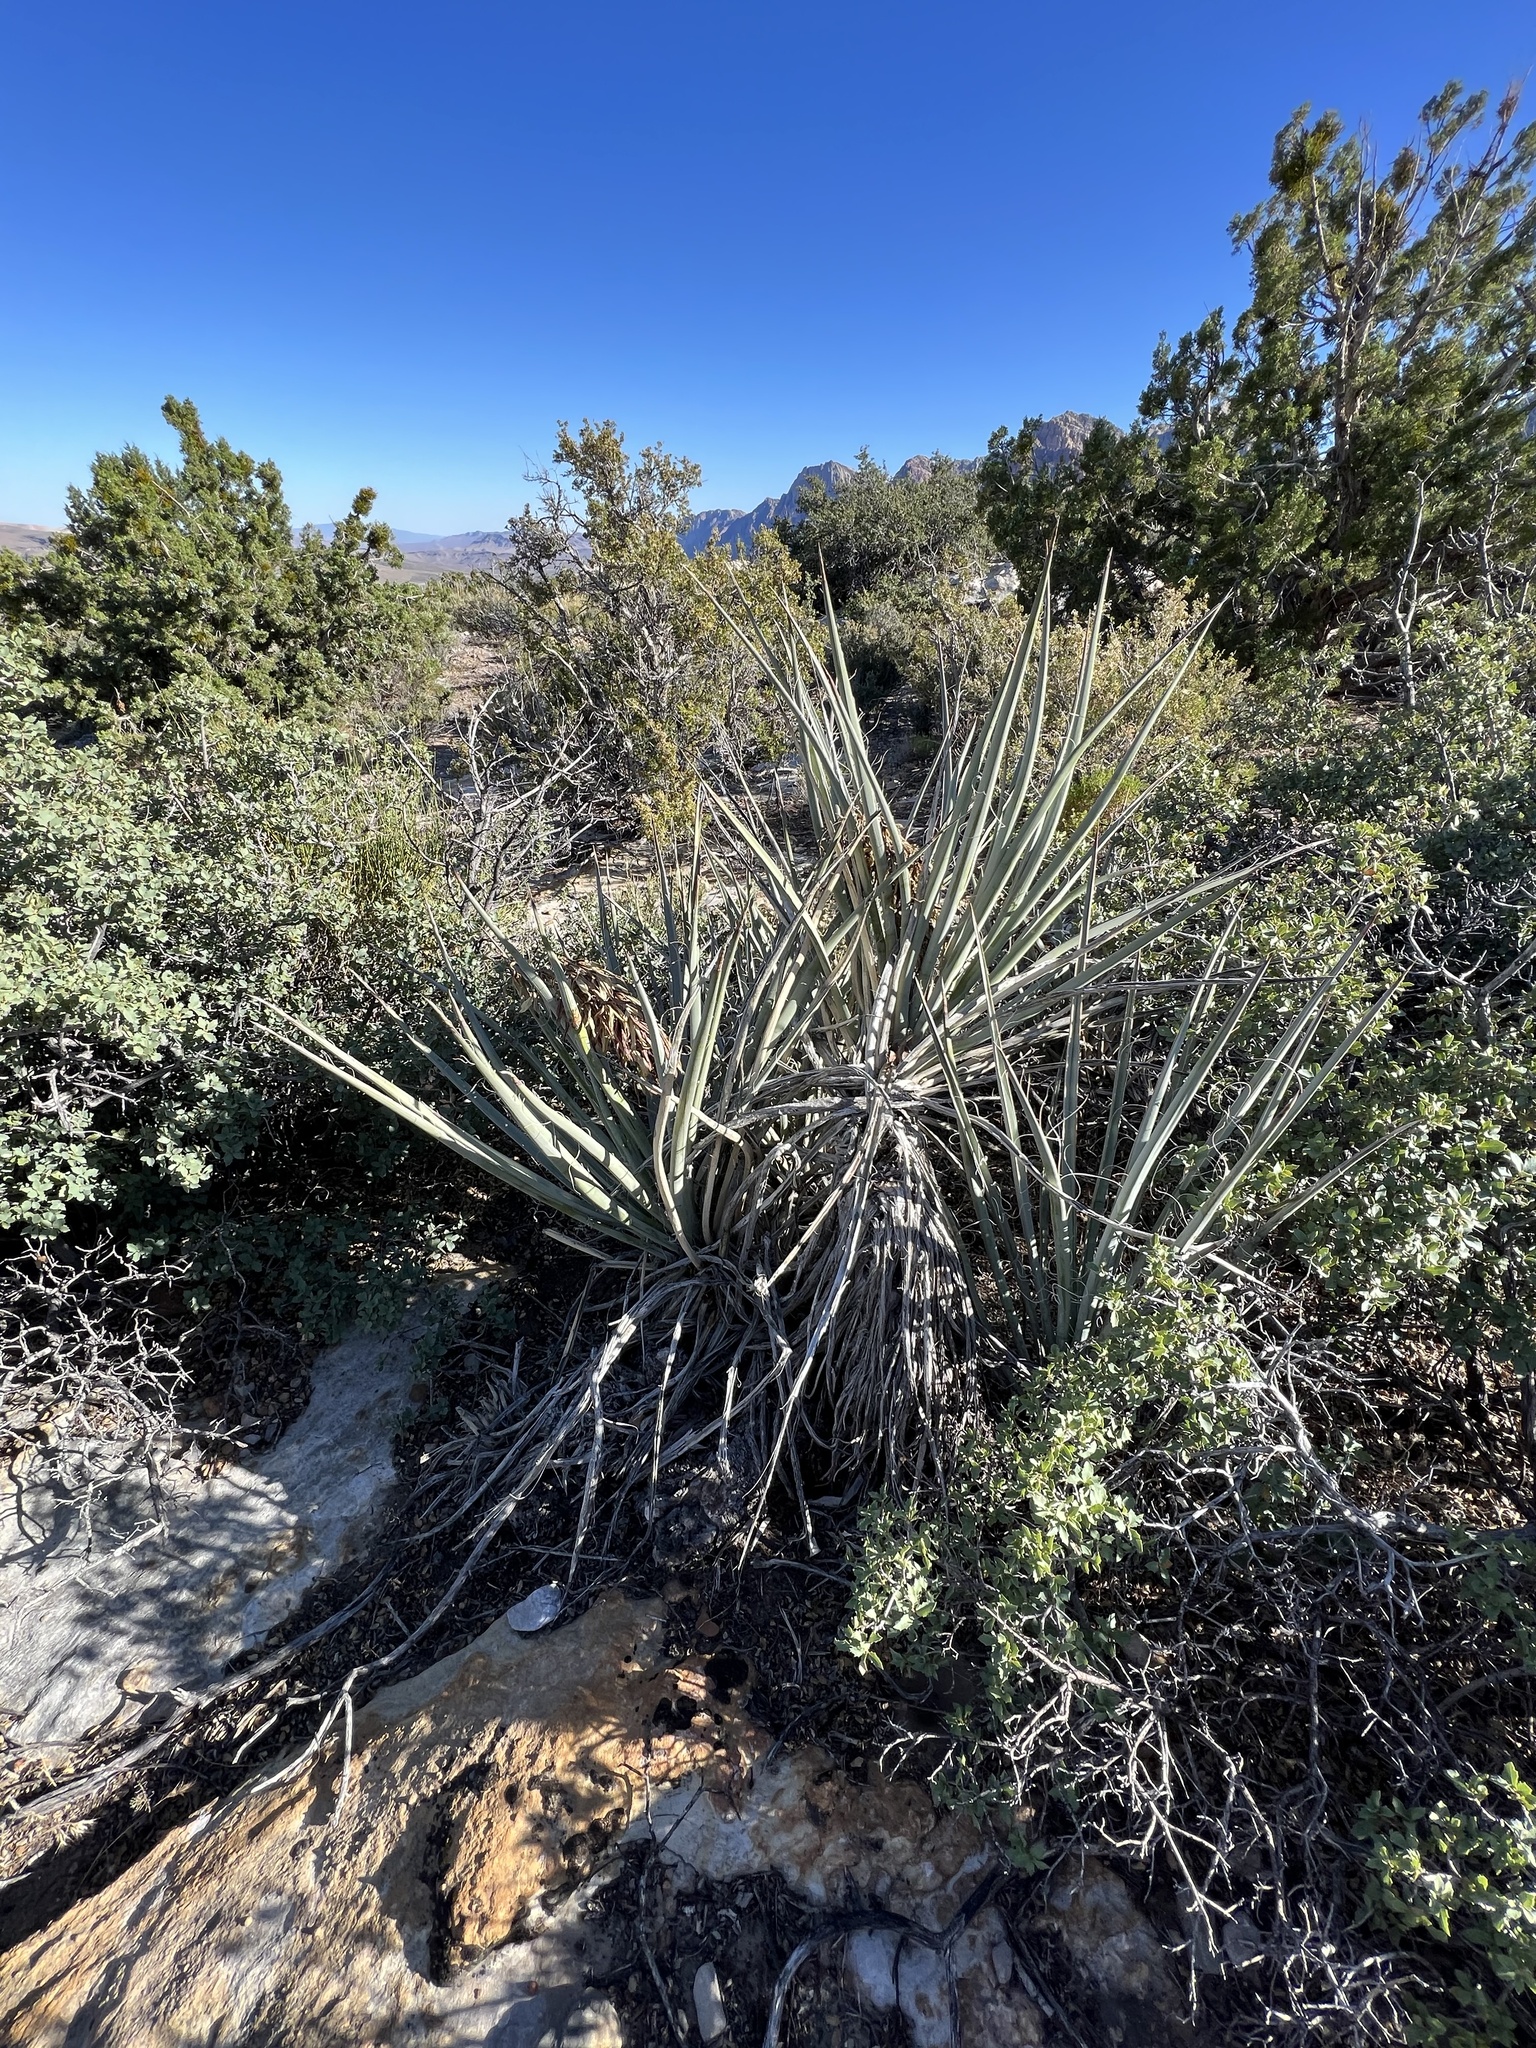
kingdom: Plantae
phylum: Tracheophyta
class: Liliopsida
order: Asparagales
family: Asparagaceae
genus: Yucca
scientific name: Yucca baccata
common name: Banana yucca
